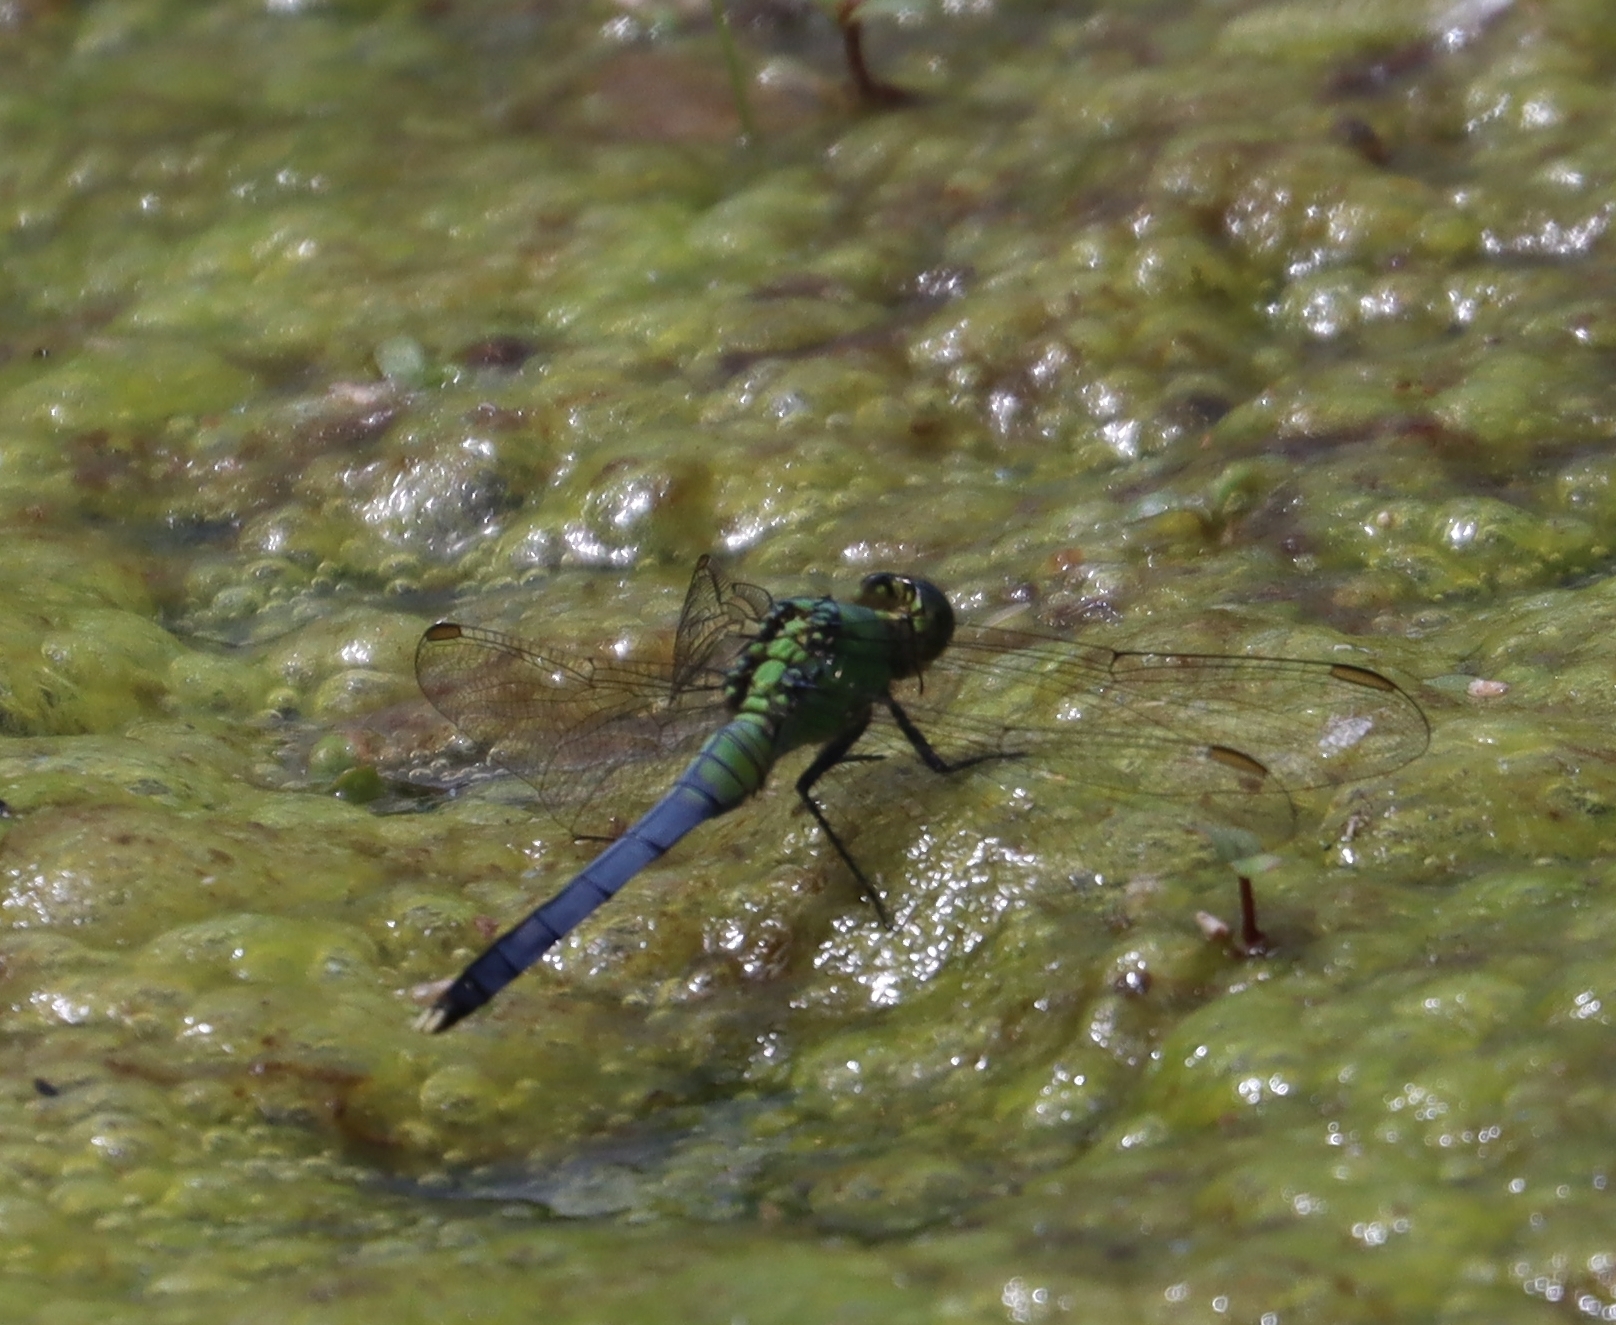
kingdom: Animalia
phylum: Arthropoda
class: Insecta
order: Odonata
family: Libellulidae
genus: Erythemis
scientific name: Erythemis simplicicollis
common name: Eastern pondhawk
